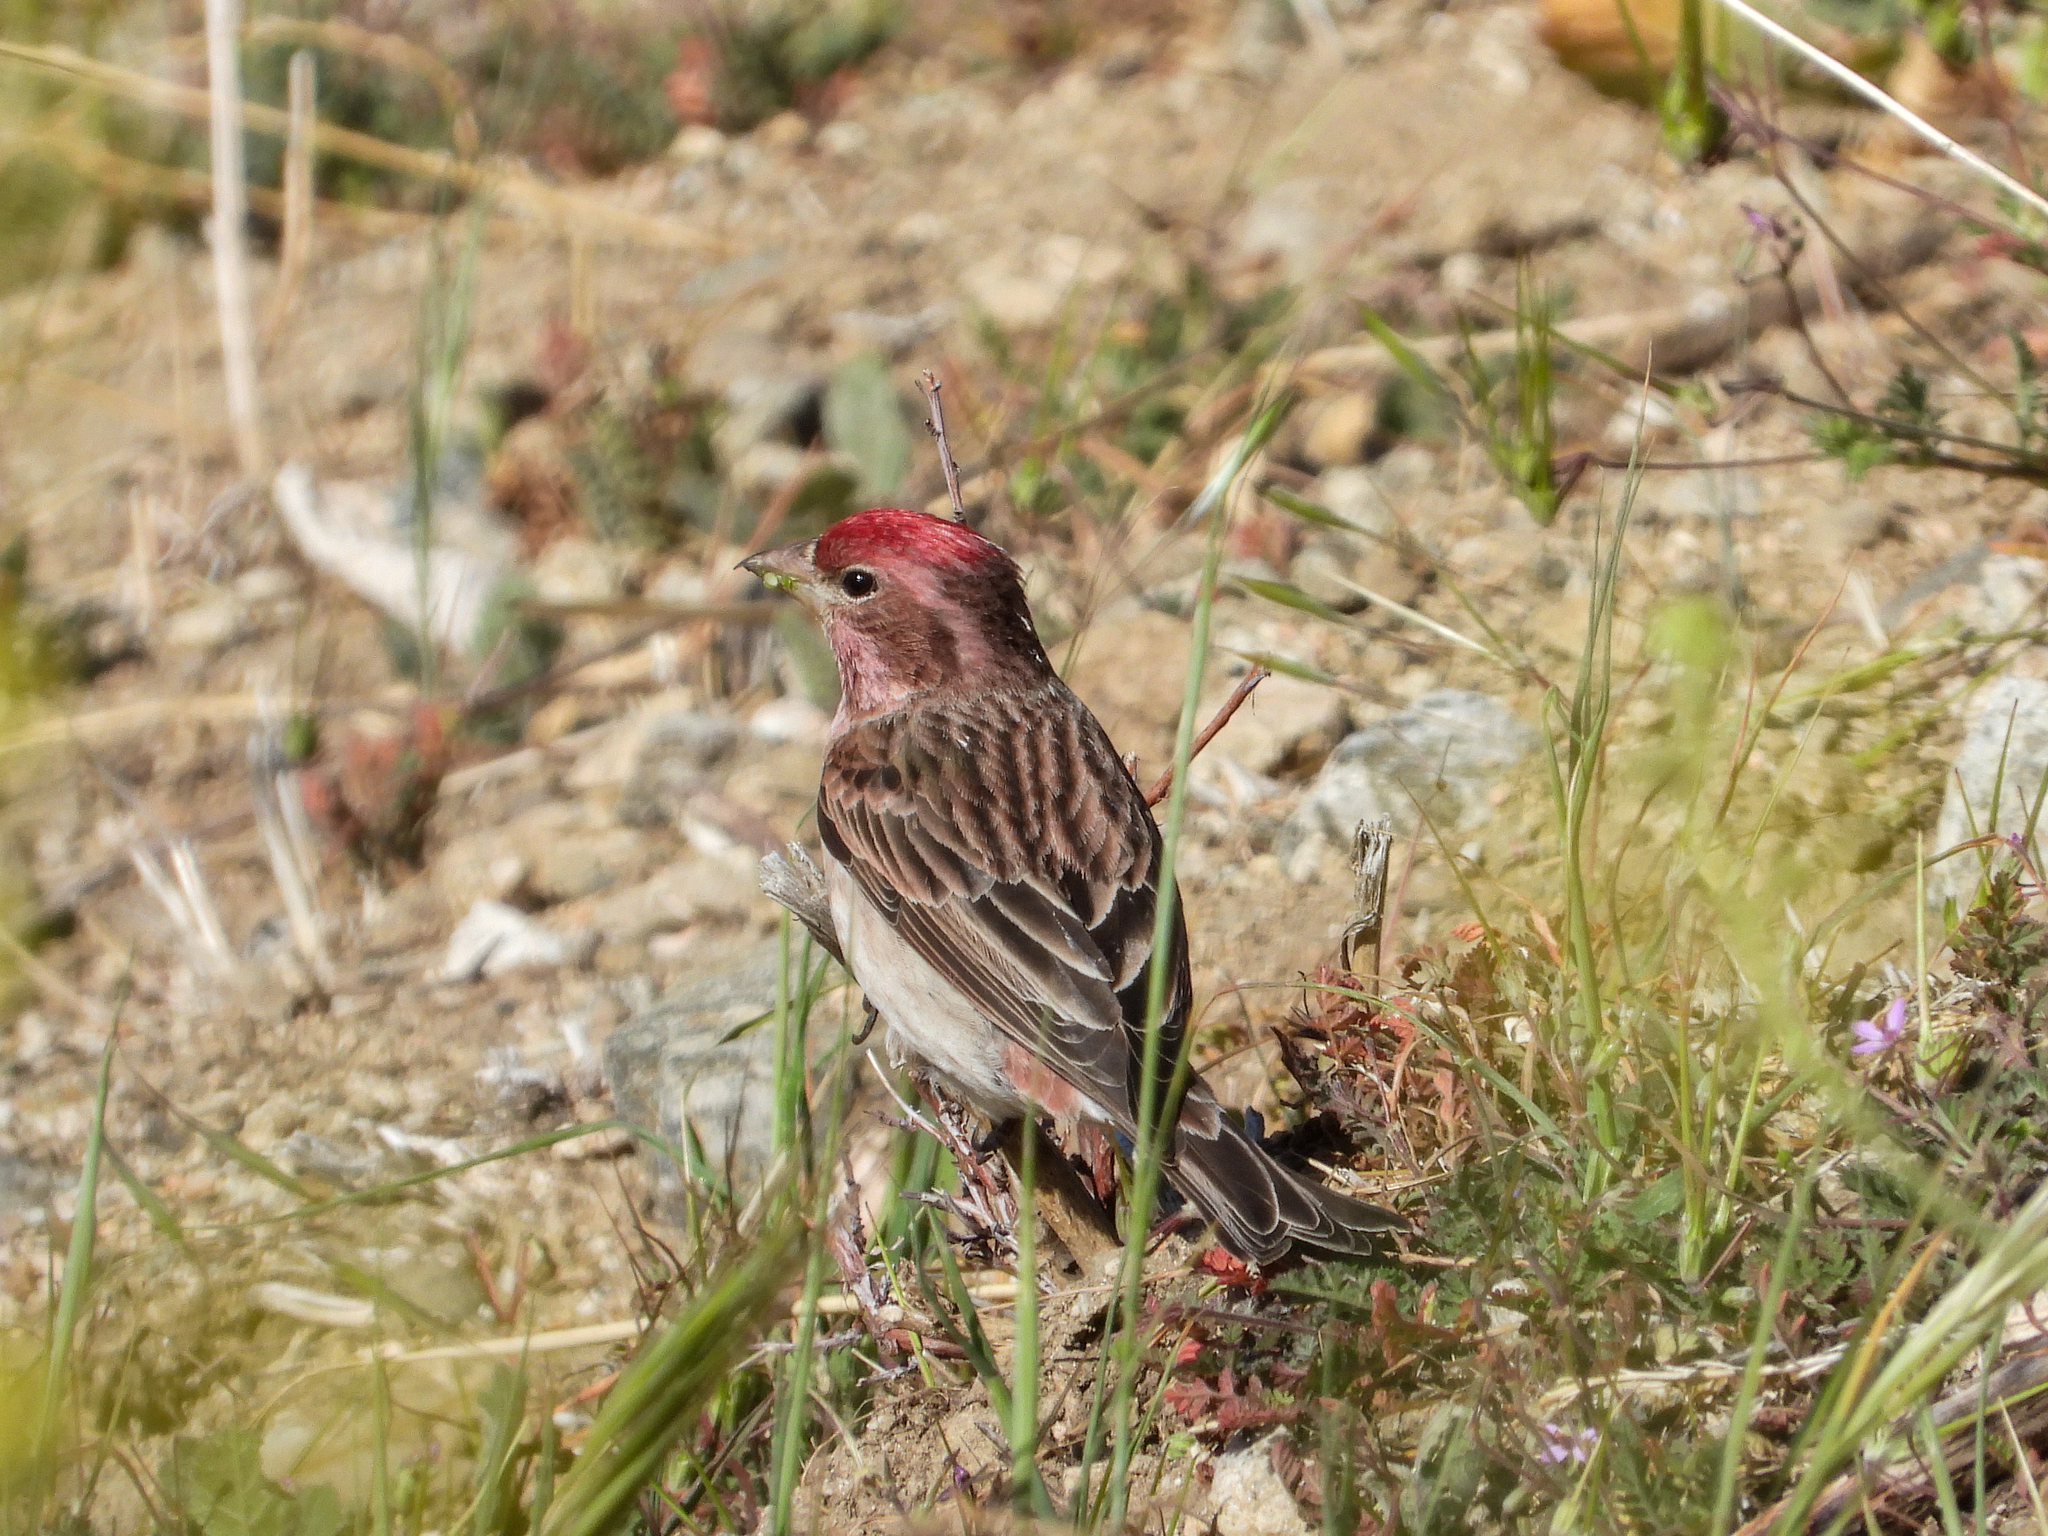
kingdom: Animalia
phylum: Chordata
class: Aves
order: Passeriformes
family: Fringillidae
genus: Haemorhous
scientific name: Haemorhous cassinii
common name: Cassin's finch
